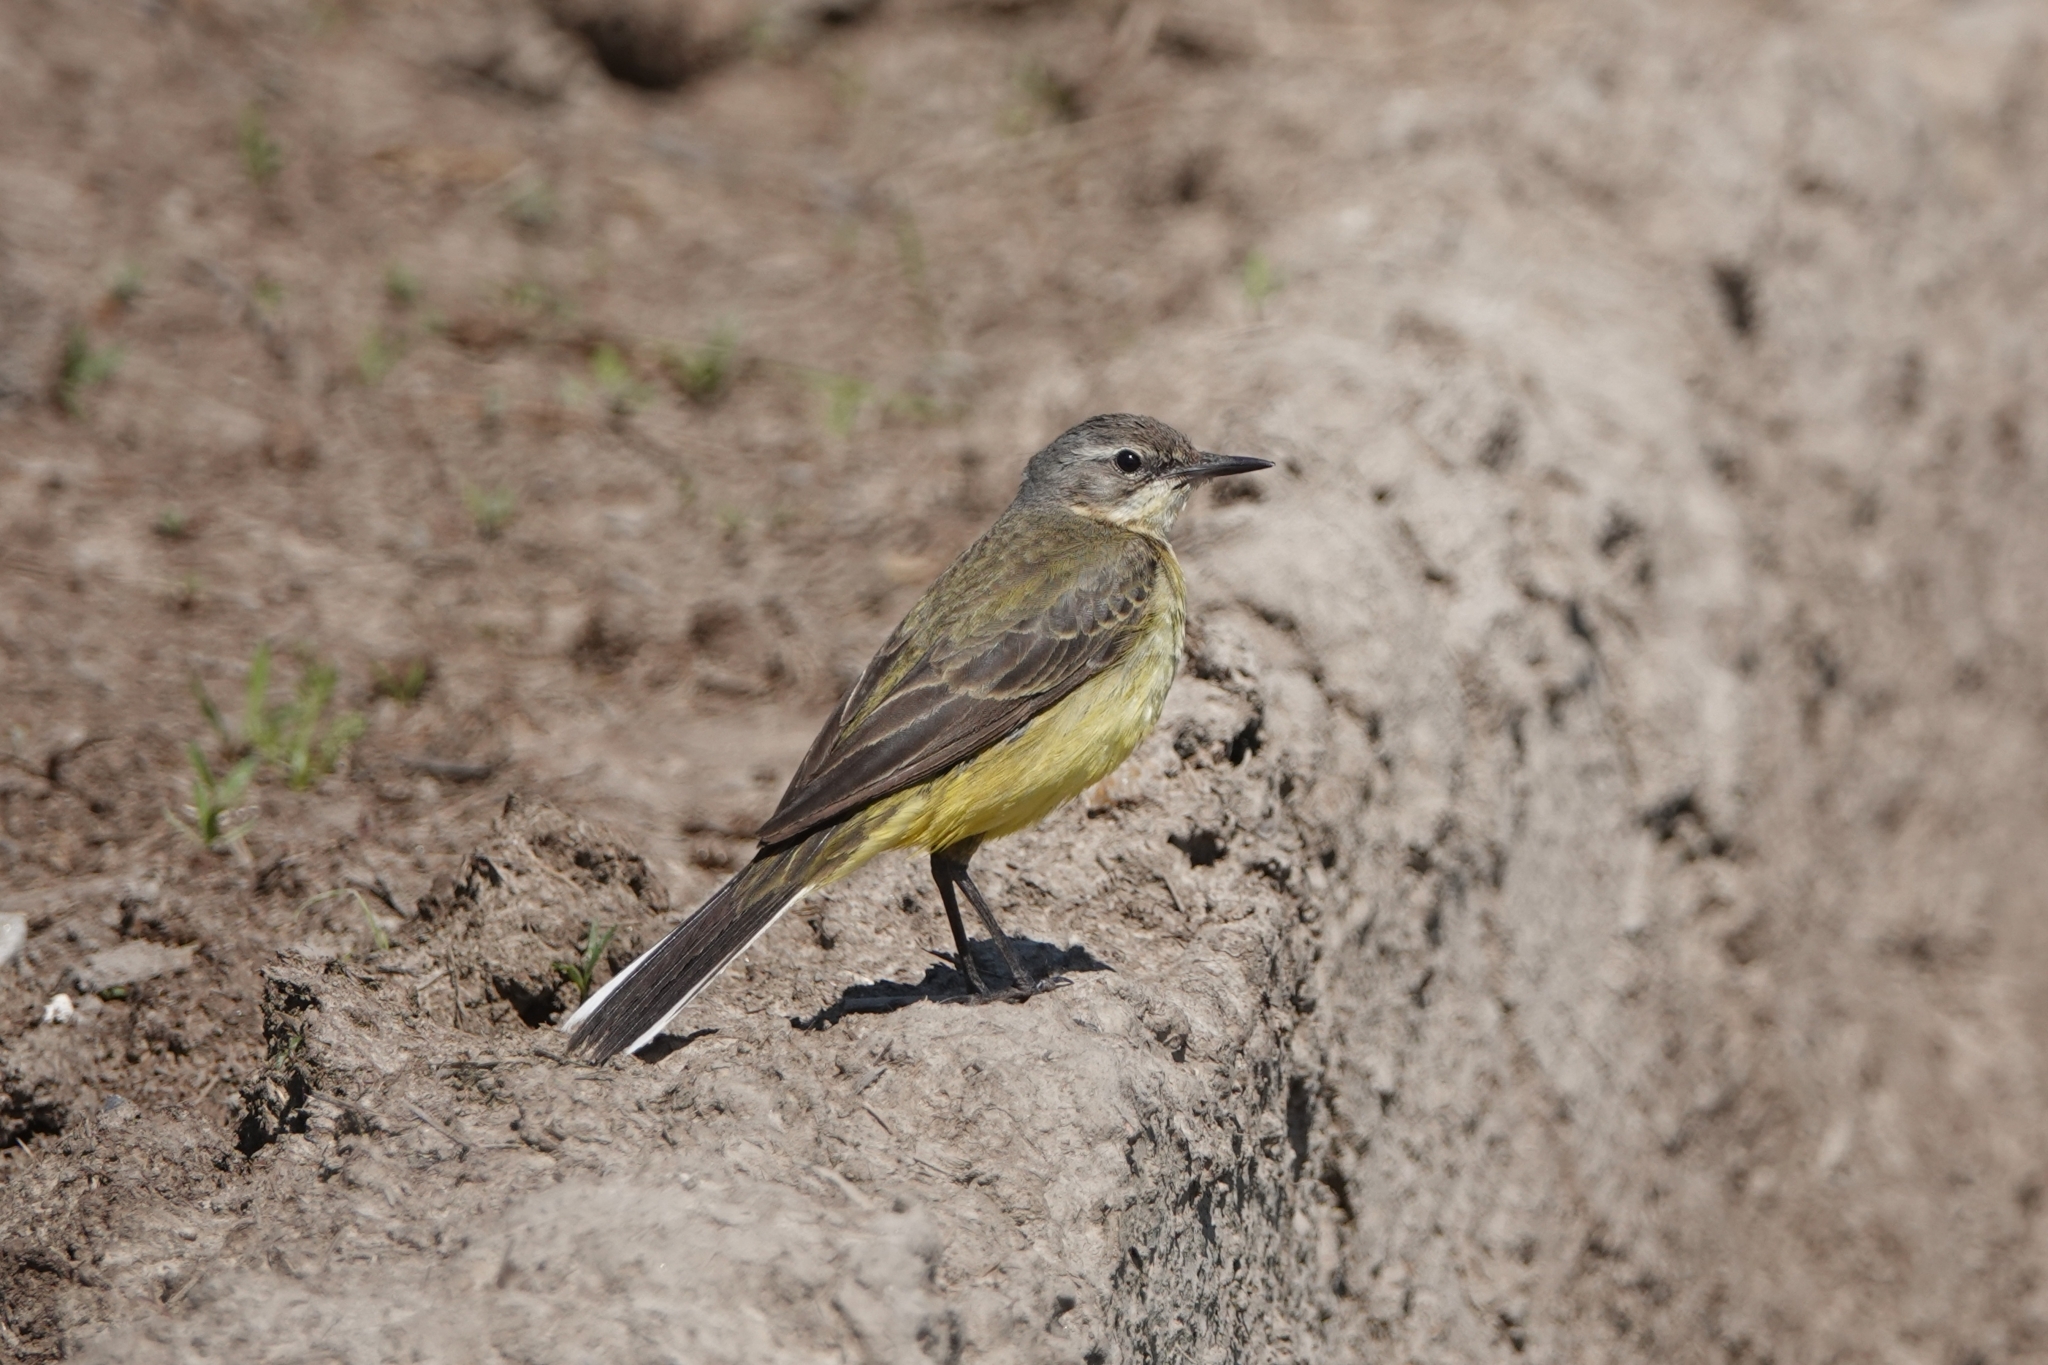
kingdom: Animalia
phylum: Chordata
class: Aves
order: Passeriformes
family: Motacillidae
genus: Motacilla
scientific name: Motacilla flava
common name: Western yellow wagtail
